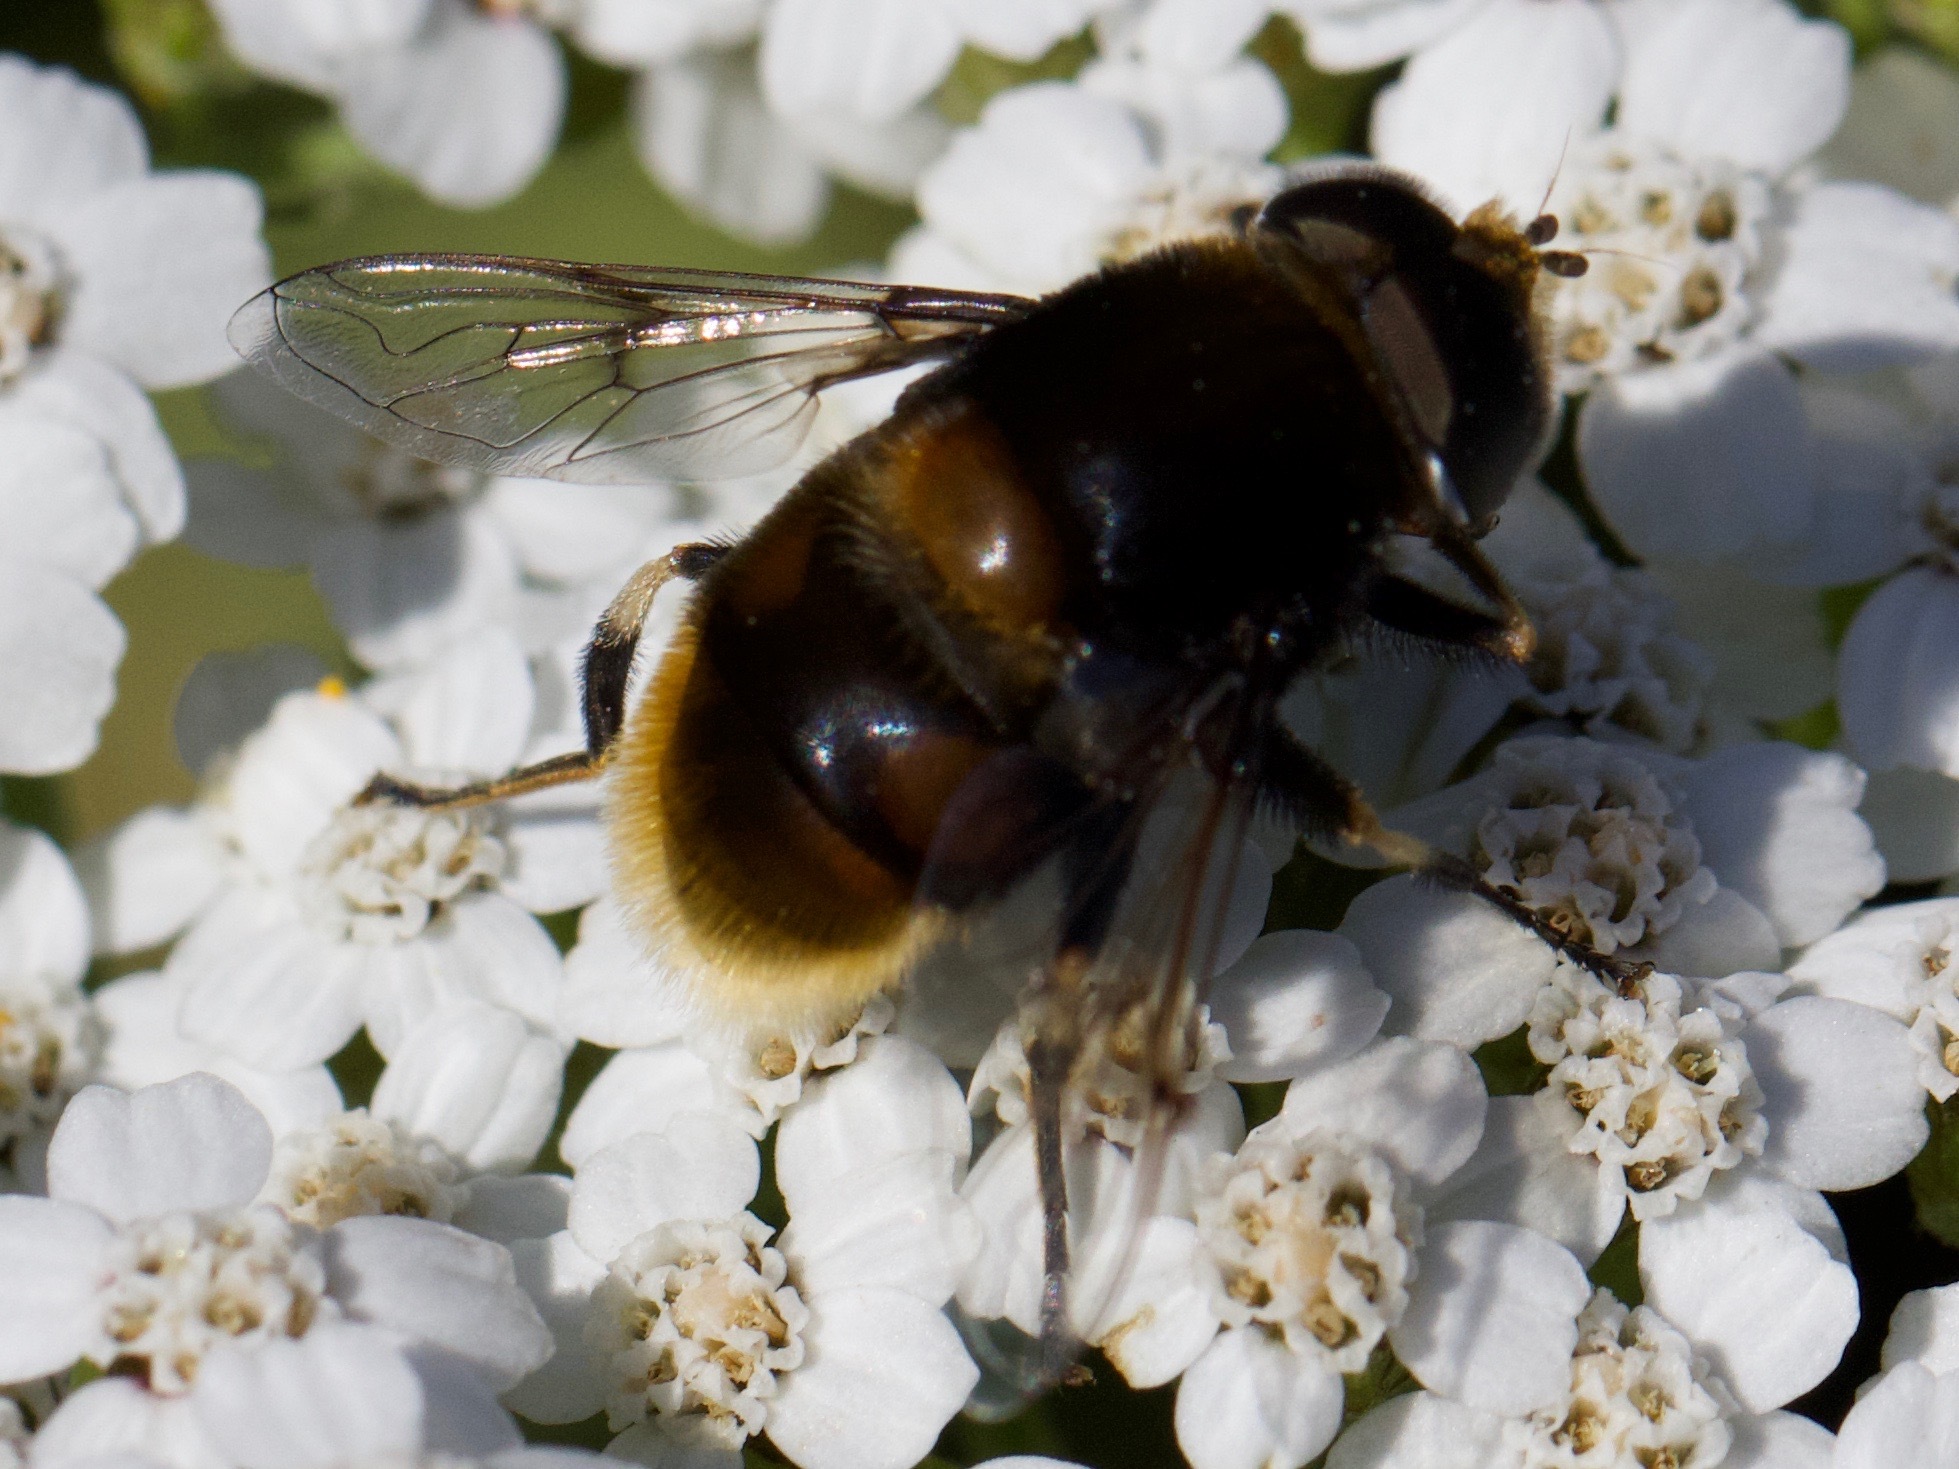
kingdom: Animalia
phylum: Arthropoda
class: Insecta
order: Diptera
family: Syrphidae
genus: Eristalis
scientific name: Eristalis intricaria
